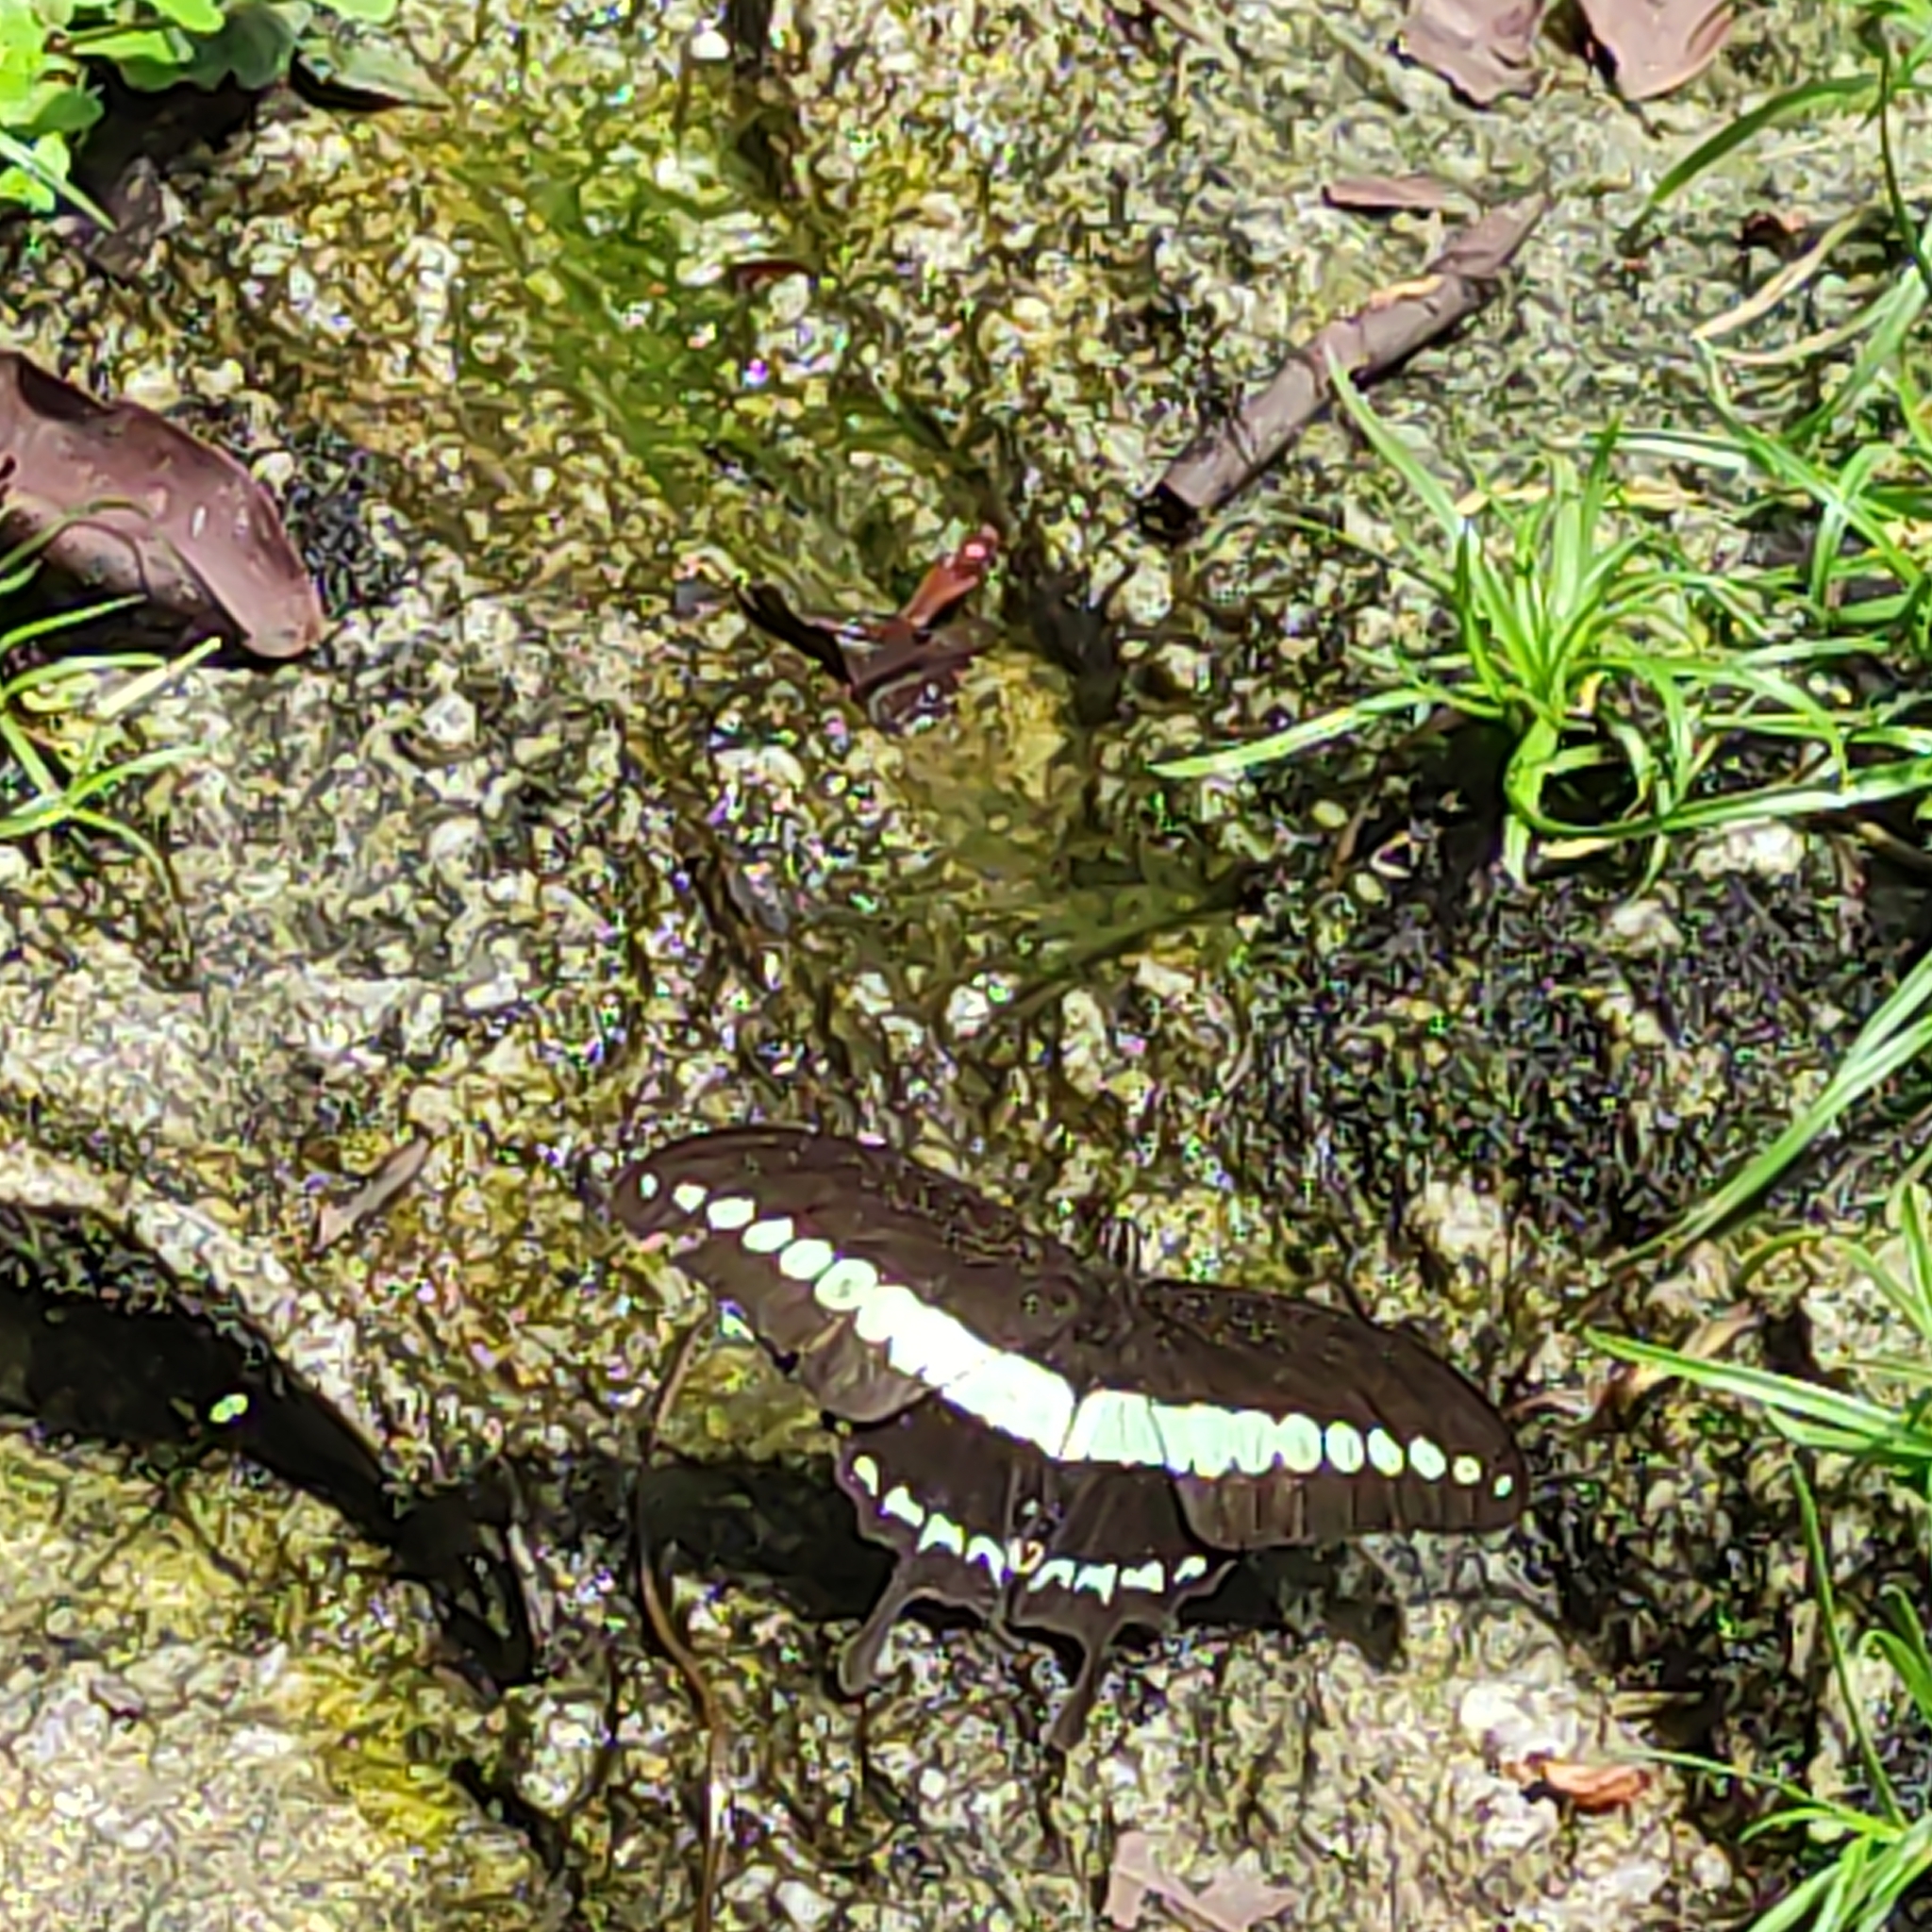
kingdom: Animalia
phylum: Arthropoda
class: Insecta
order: Lepidoptera
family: Papilionidae
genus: Papilio
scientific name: Papilio demolion
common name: Banded swallowtail
